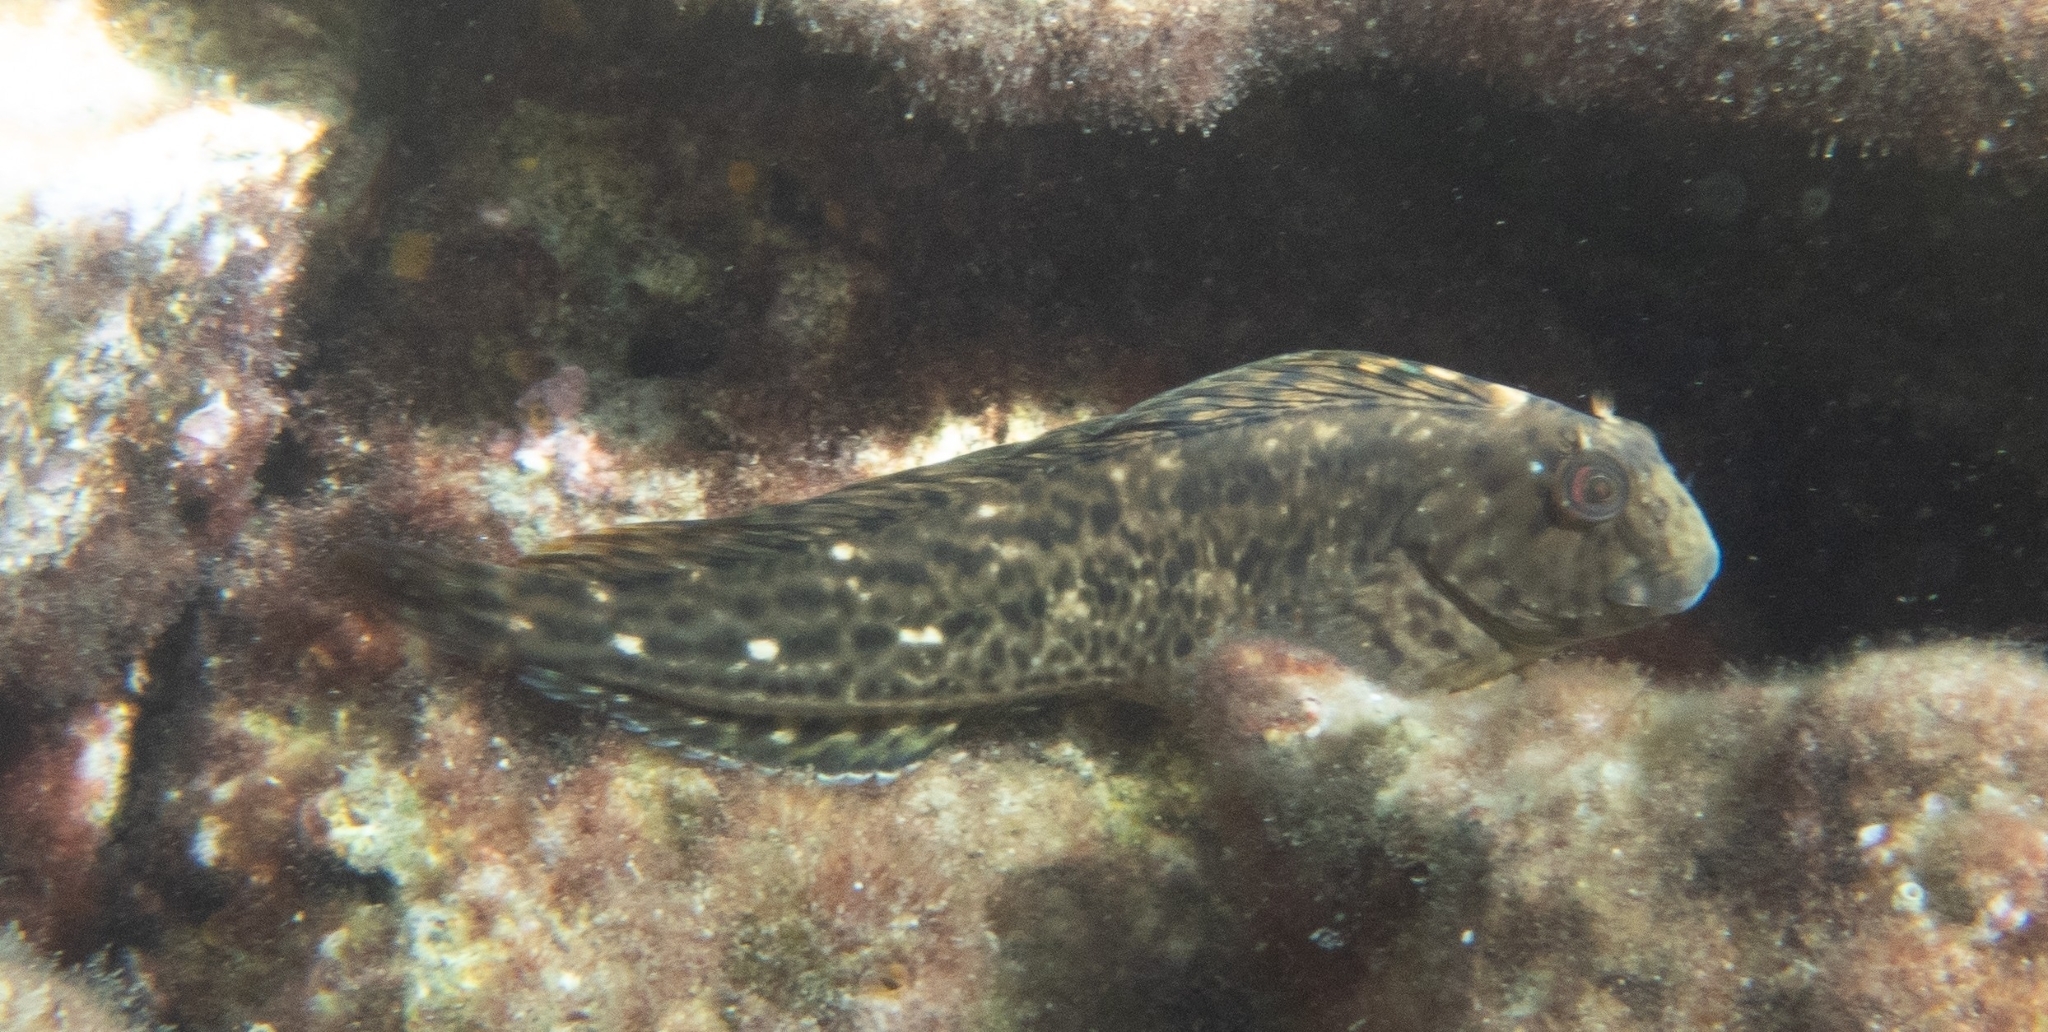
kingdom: Animalia
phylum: Chordata
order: Perciformes
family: Blenniidae
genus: Parablennius
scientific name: Parablennius sanguinolentus
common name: Black sea blenny
